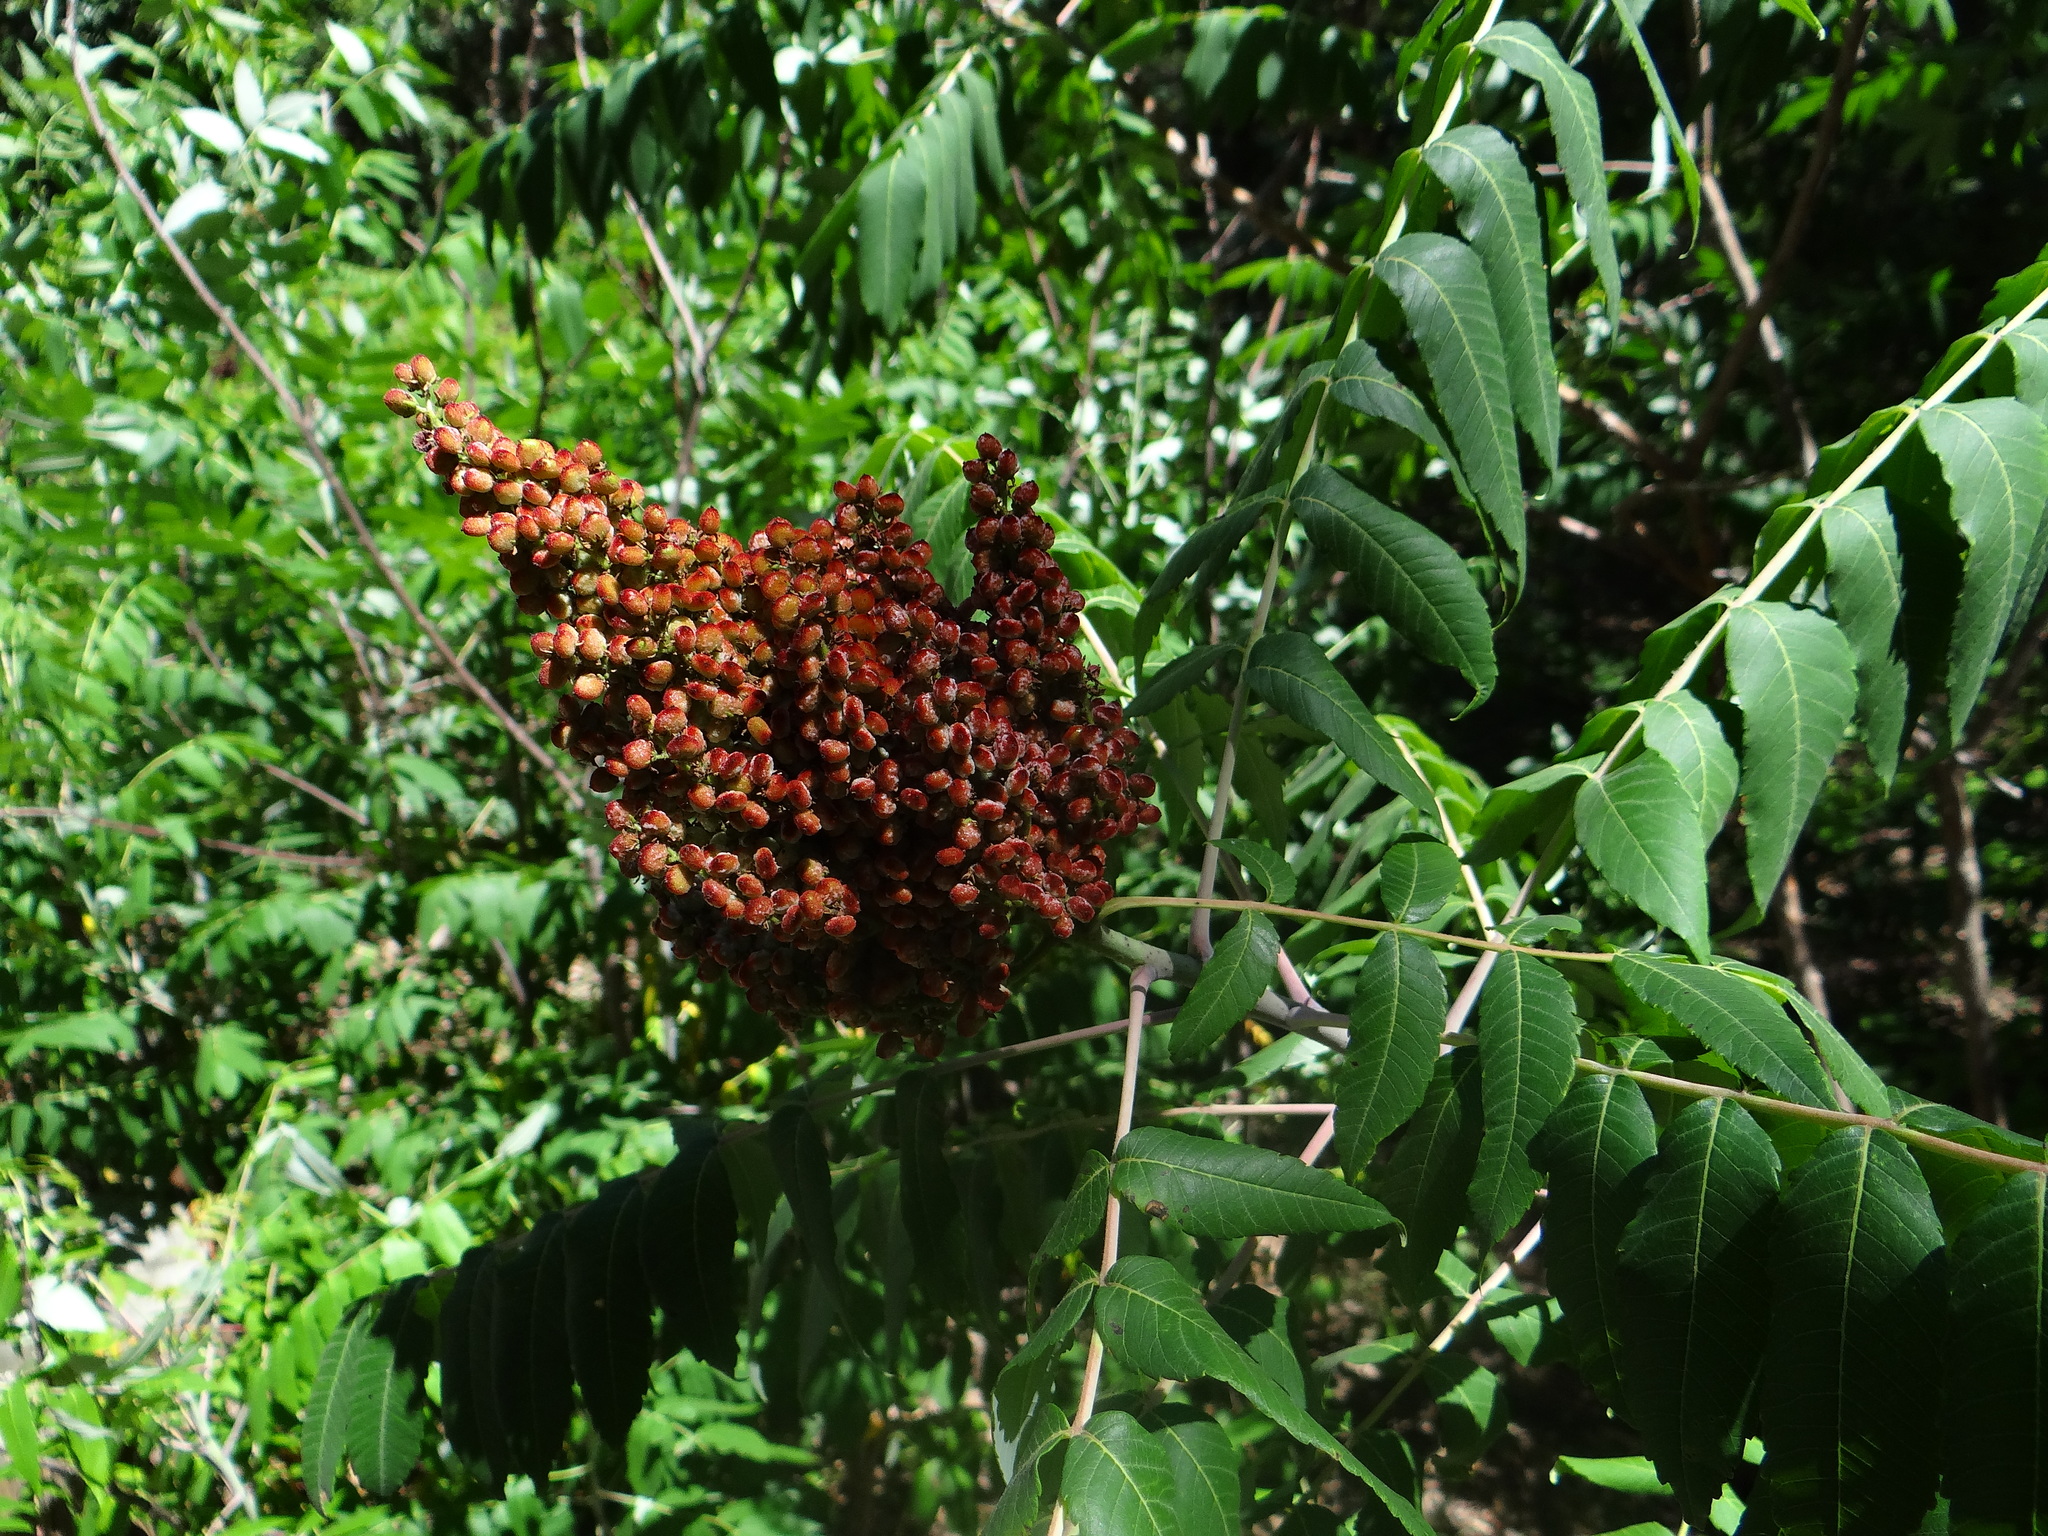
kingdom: Plantae
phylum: Tracheophyta
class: Magnoliopsida
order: Sapindales
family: Anacardiaceae
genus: Rhus
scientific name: Rhus glabra
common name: Scarlet sumac
